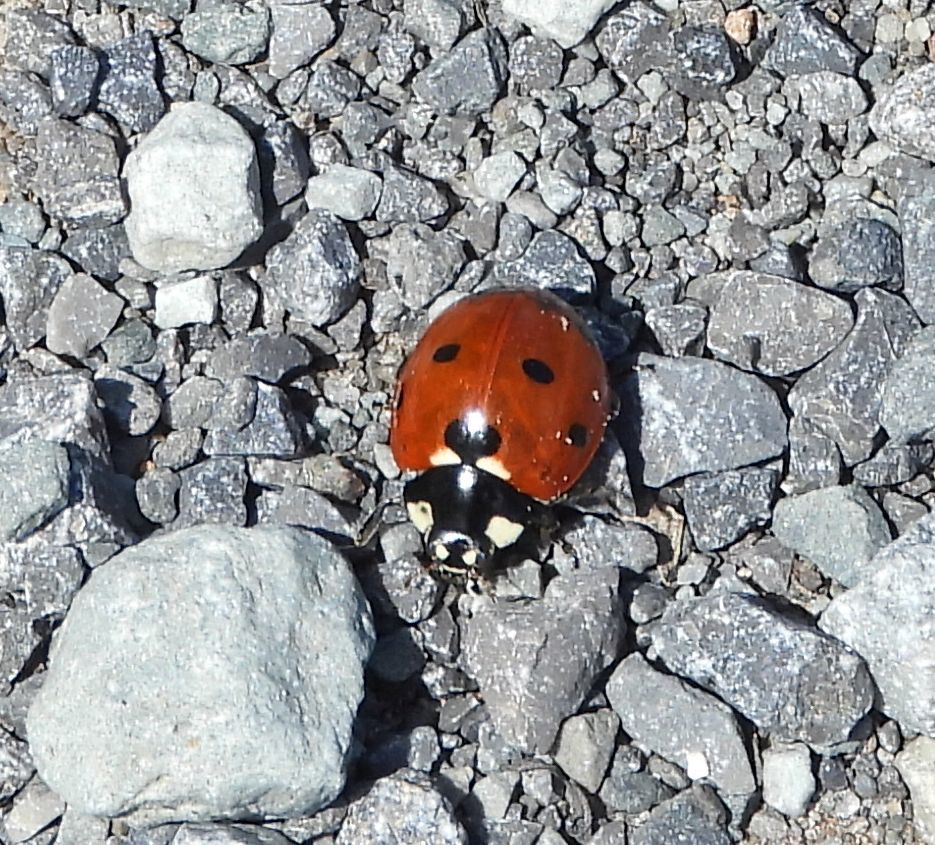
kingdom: Animalia
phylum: Arthropoda
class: Insecta
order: Coleoptera
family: Coccinellidae
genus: Coccinella
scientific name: Coccinella septempunctata
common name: Sevenspotted lady beetle
